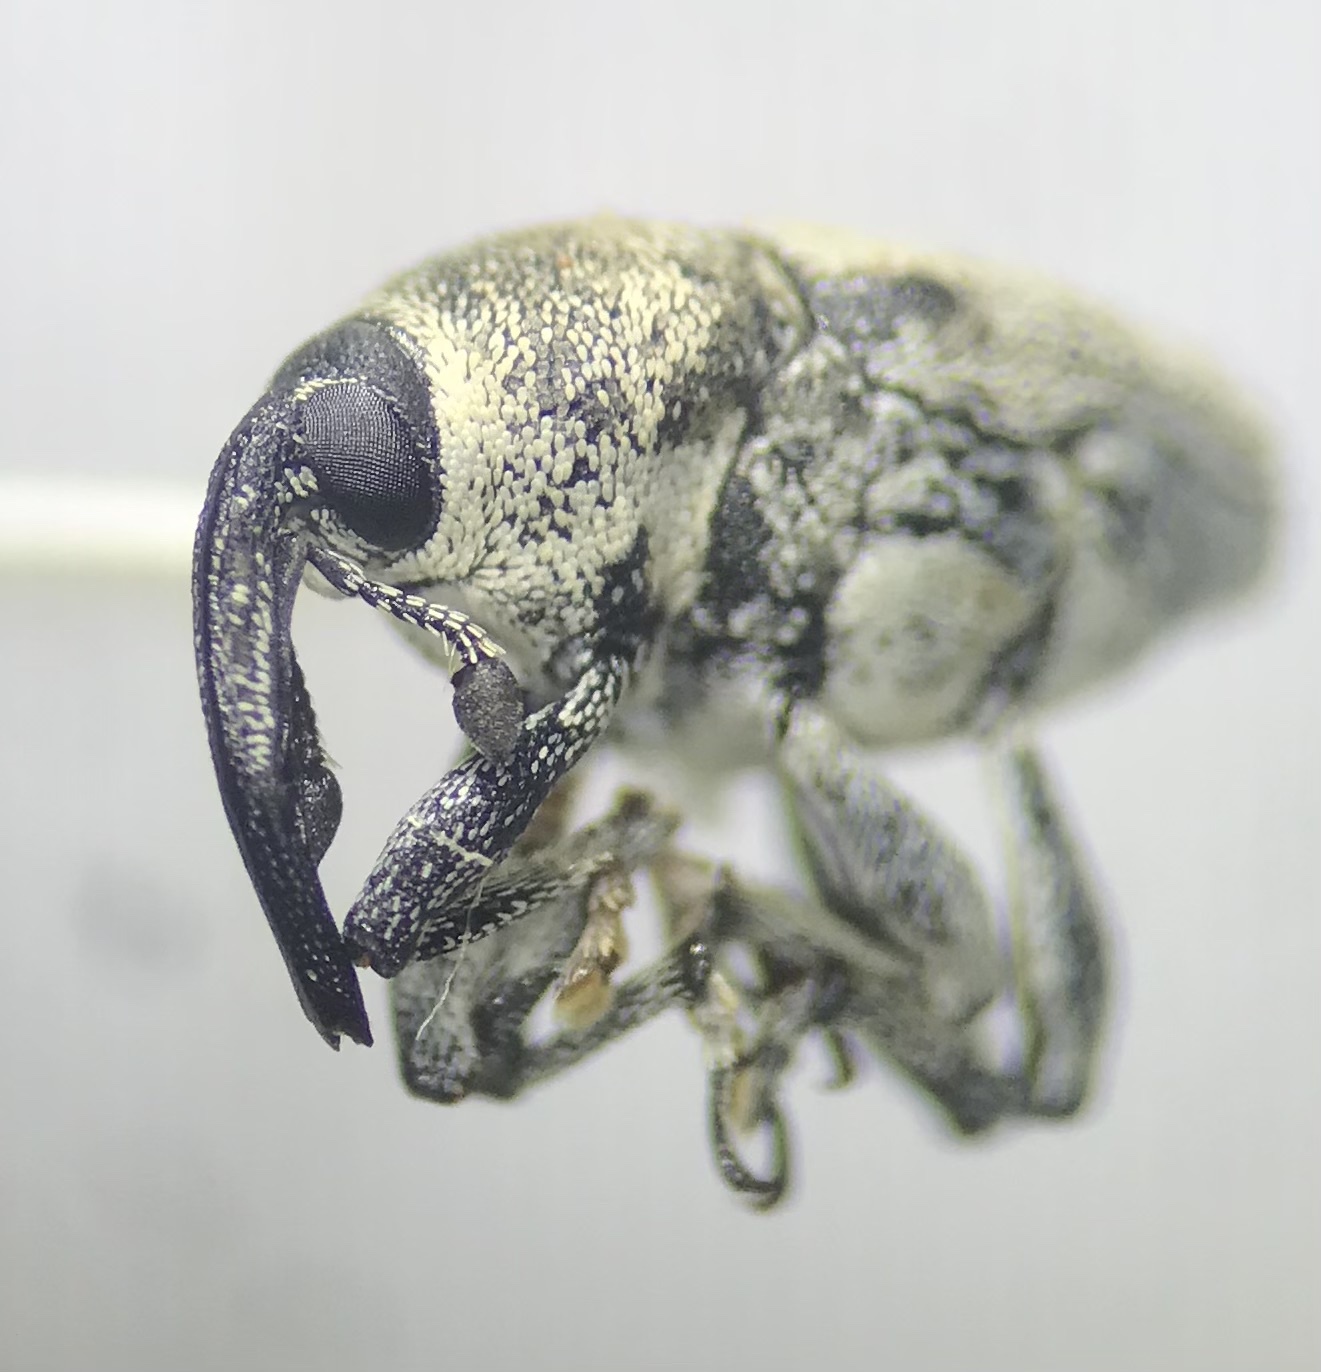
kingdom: Animalia
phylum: Arthropoda
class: Insecta
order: Coleoptera
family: Curculionidae
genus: Odontocorynus
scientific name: Odontocorynus pulverulentus
